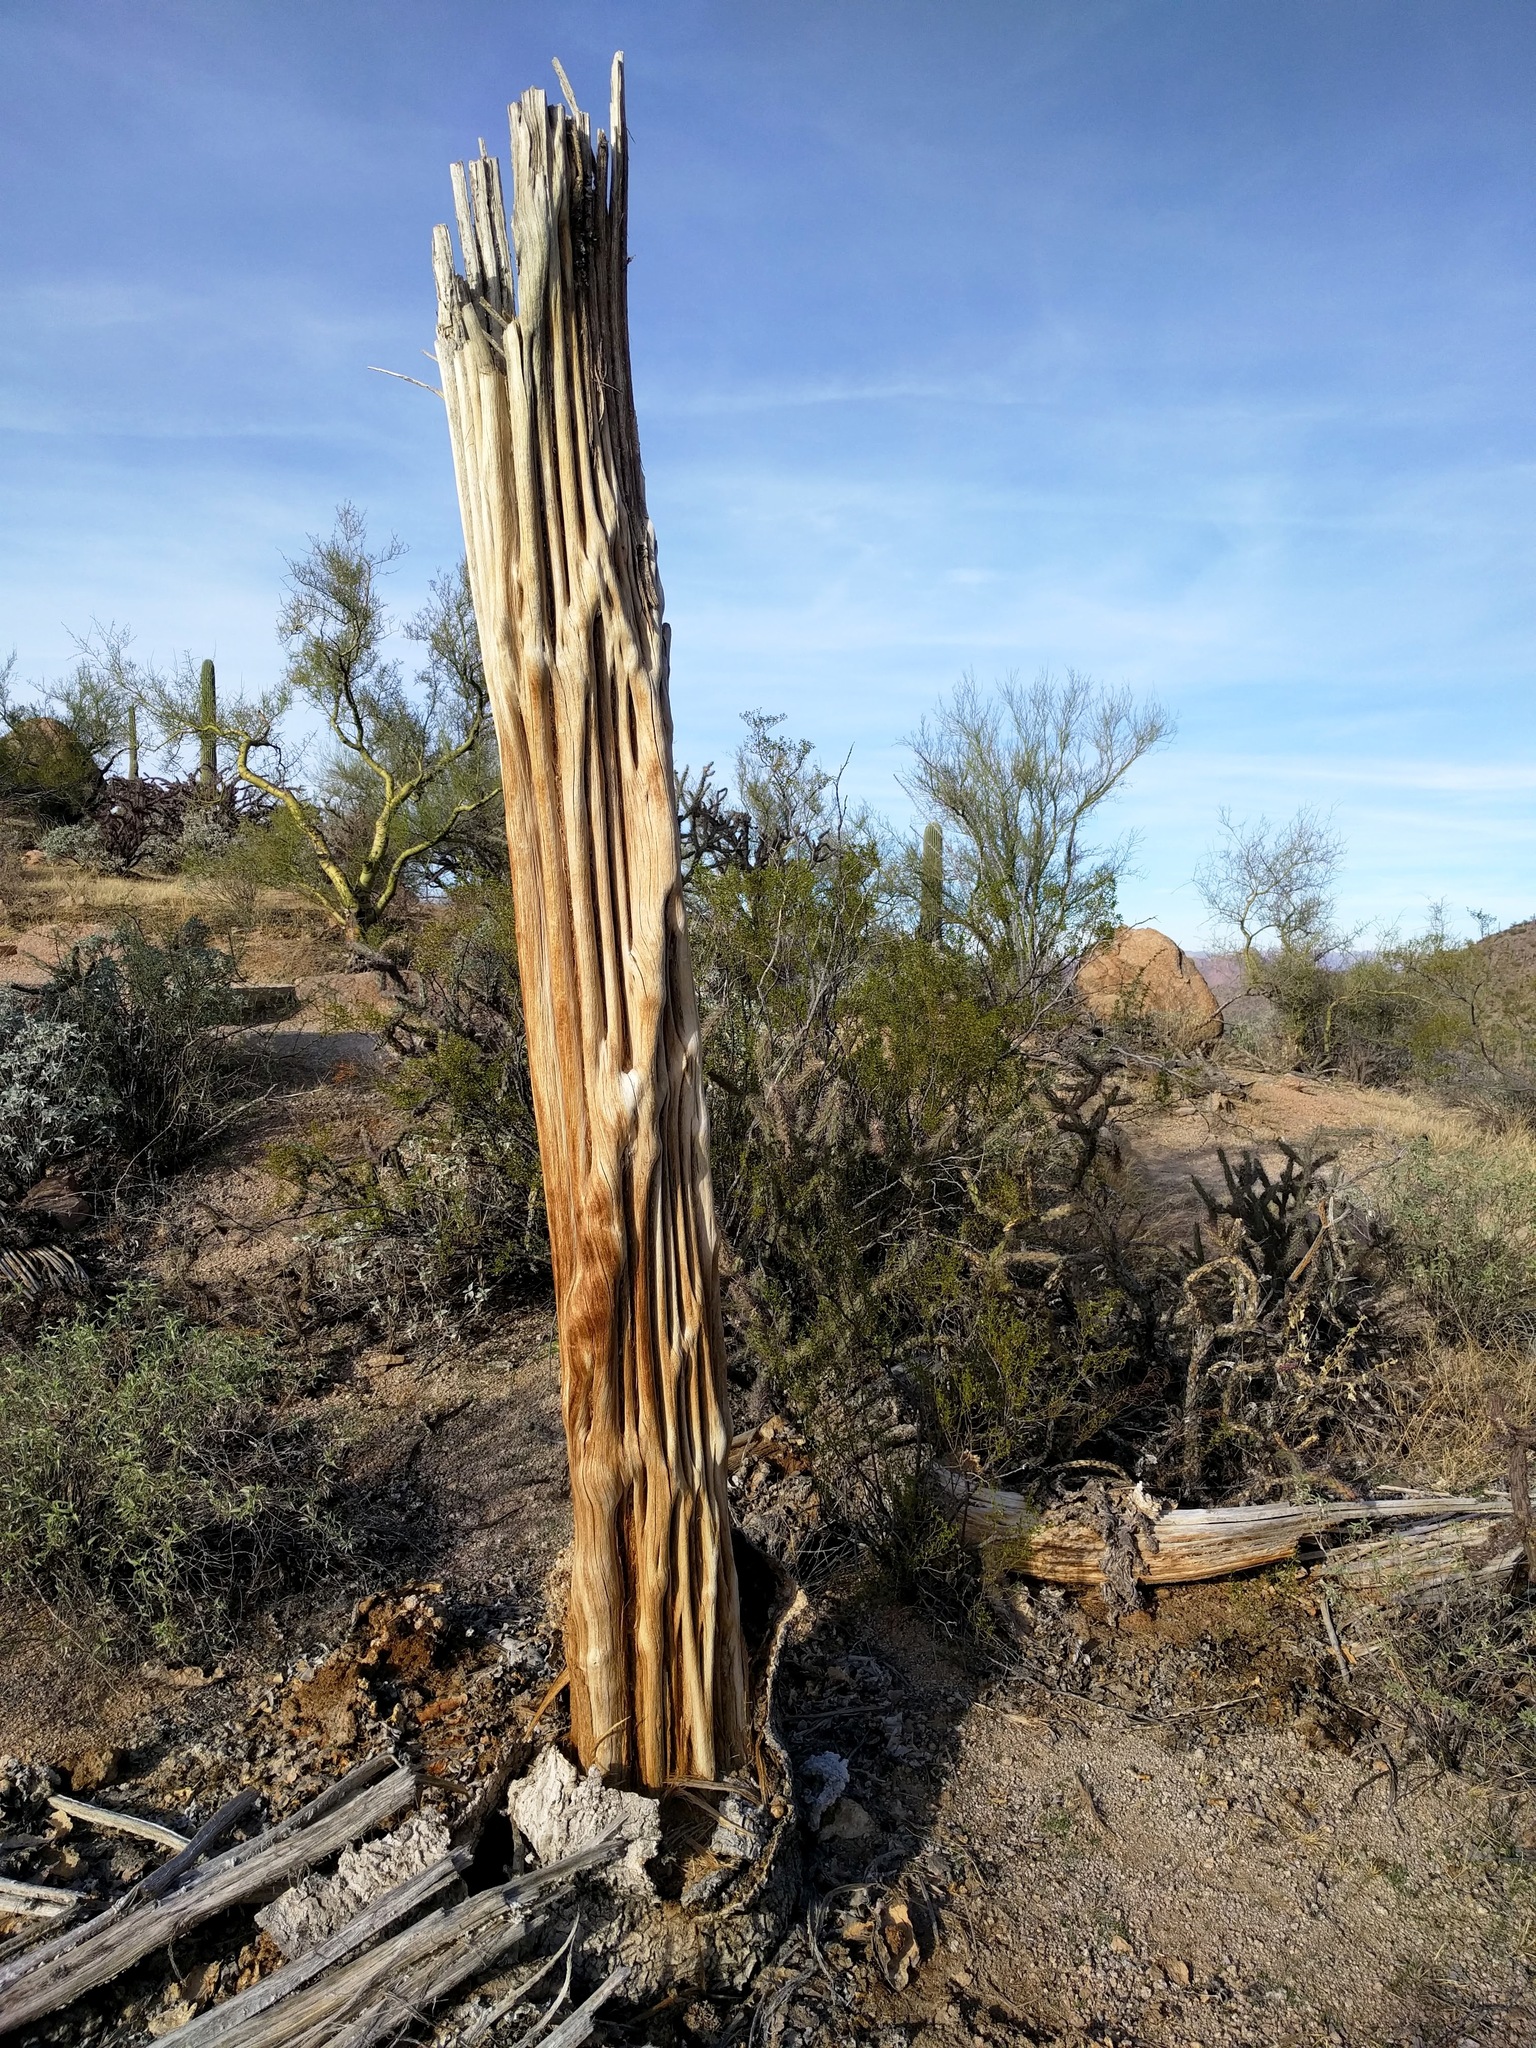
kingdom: Plantae
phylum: Tracheophyta
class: Magnoliopsida
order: Caryophyllales
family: Cactaceae
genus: Carnegiea
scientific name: Carnegiea gigantea
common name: Saguaro
